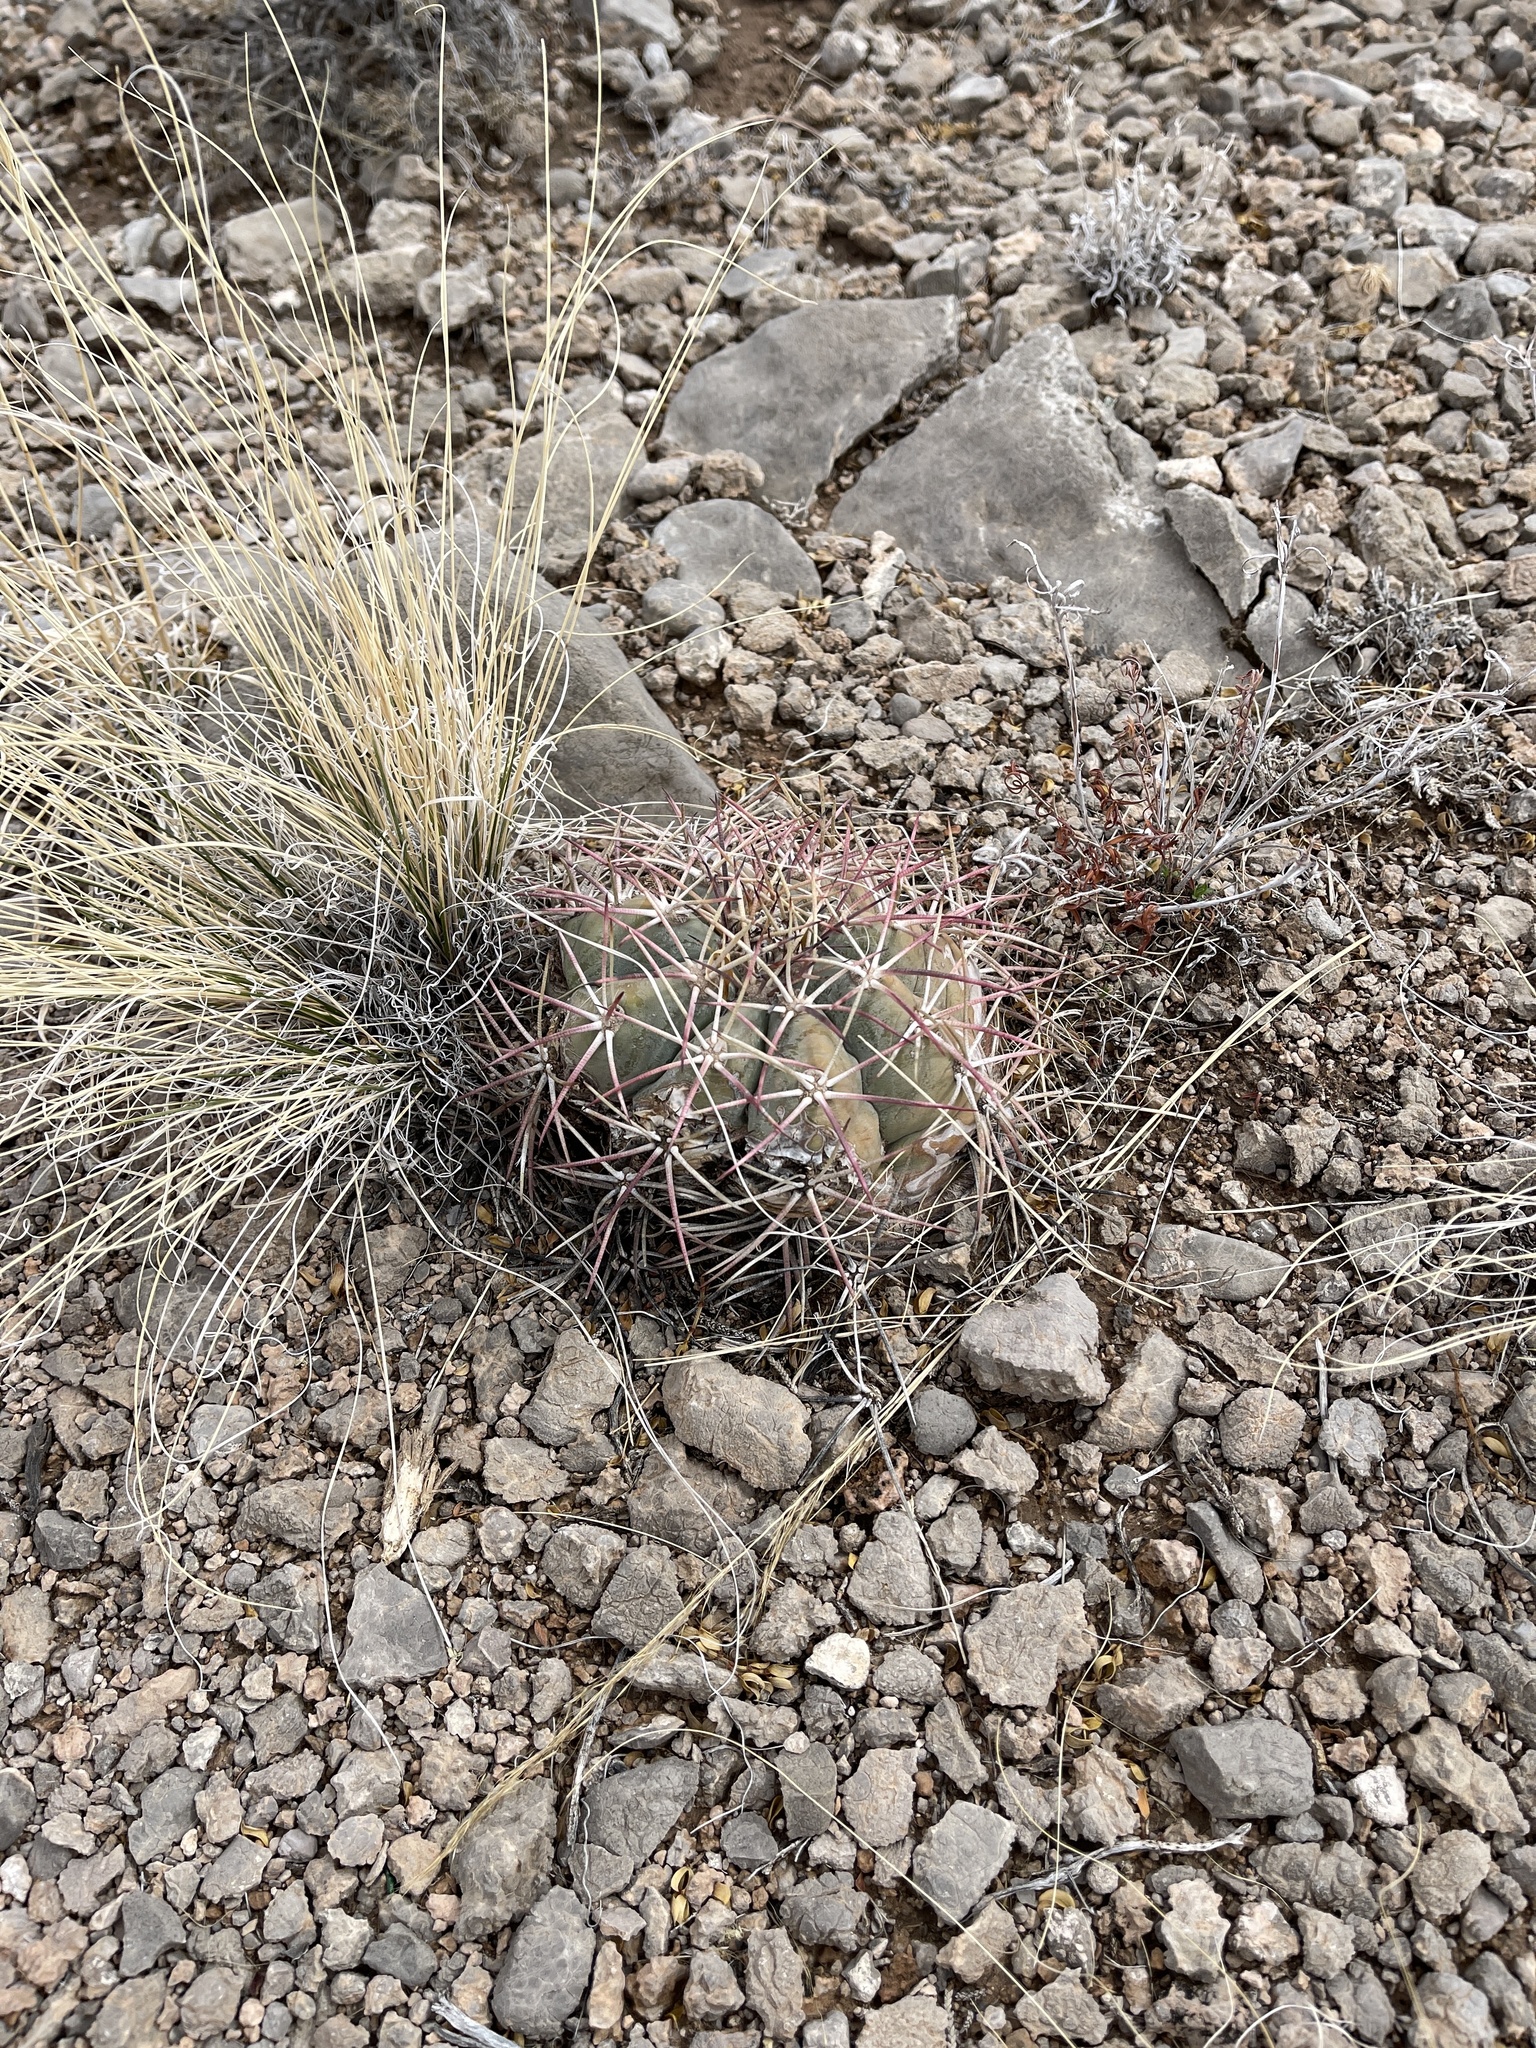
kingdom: Plantae
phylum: Tracheophyta
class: Magnoliopsida
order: Caryophyllales
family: Cactaceae
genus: Echinocactus
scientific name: Echinocactus horizonthalonius
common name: Devilshead
